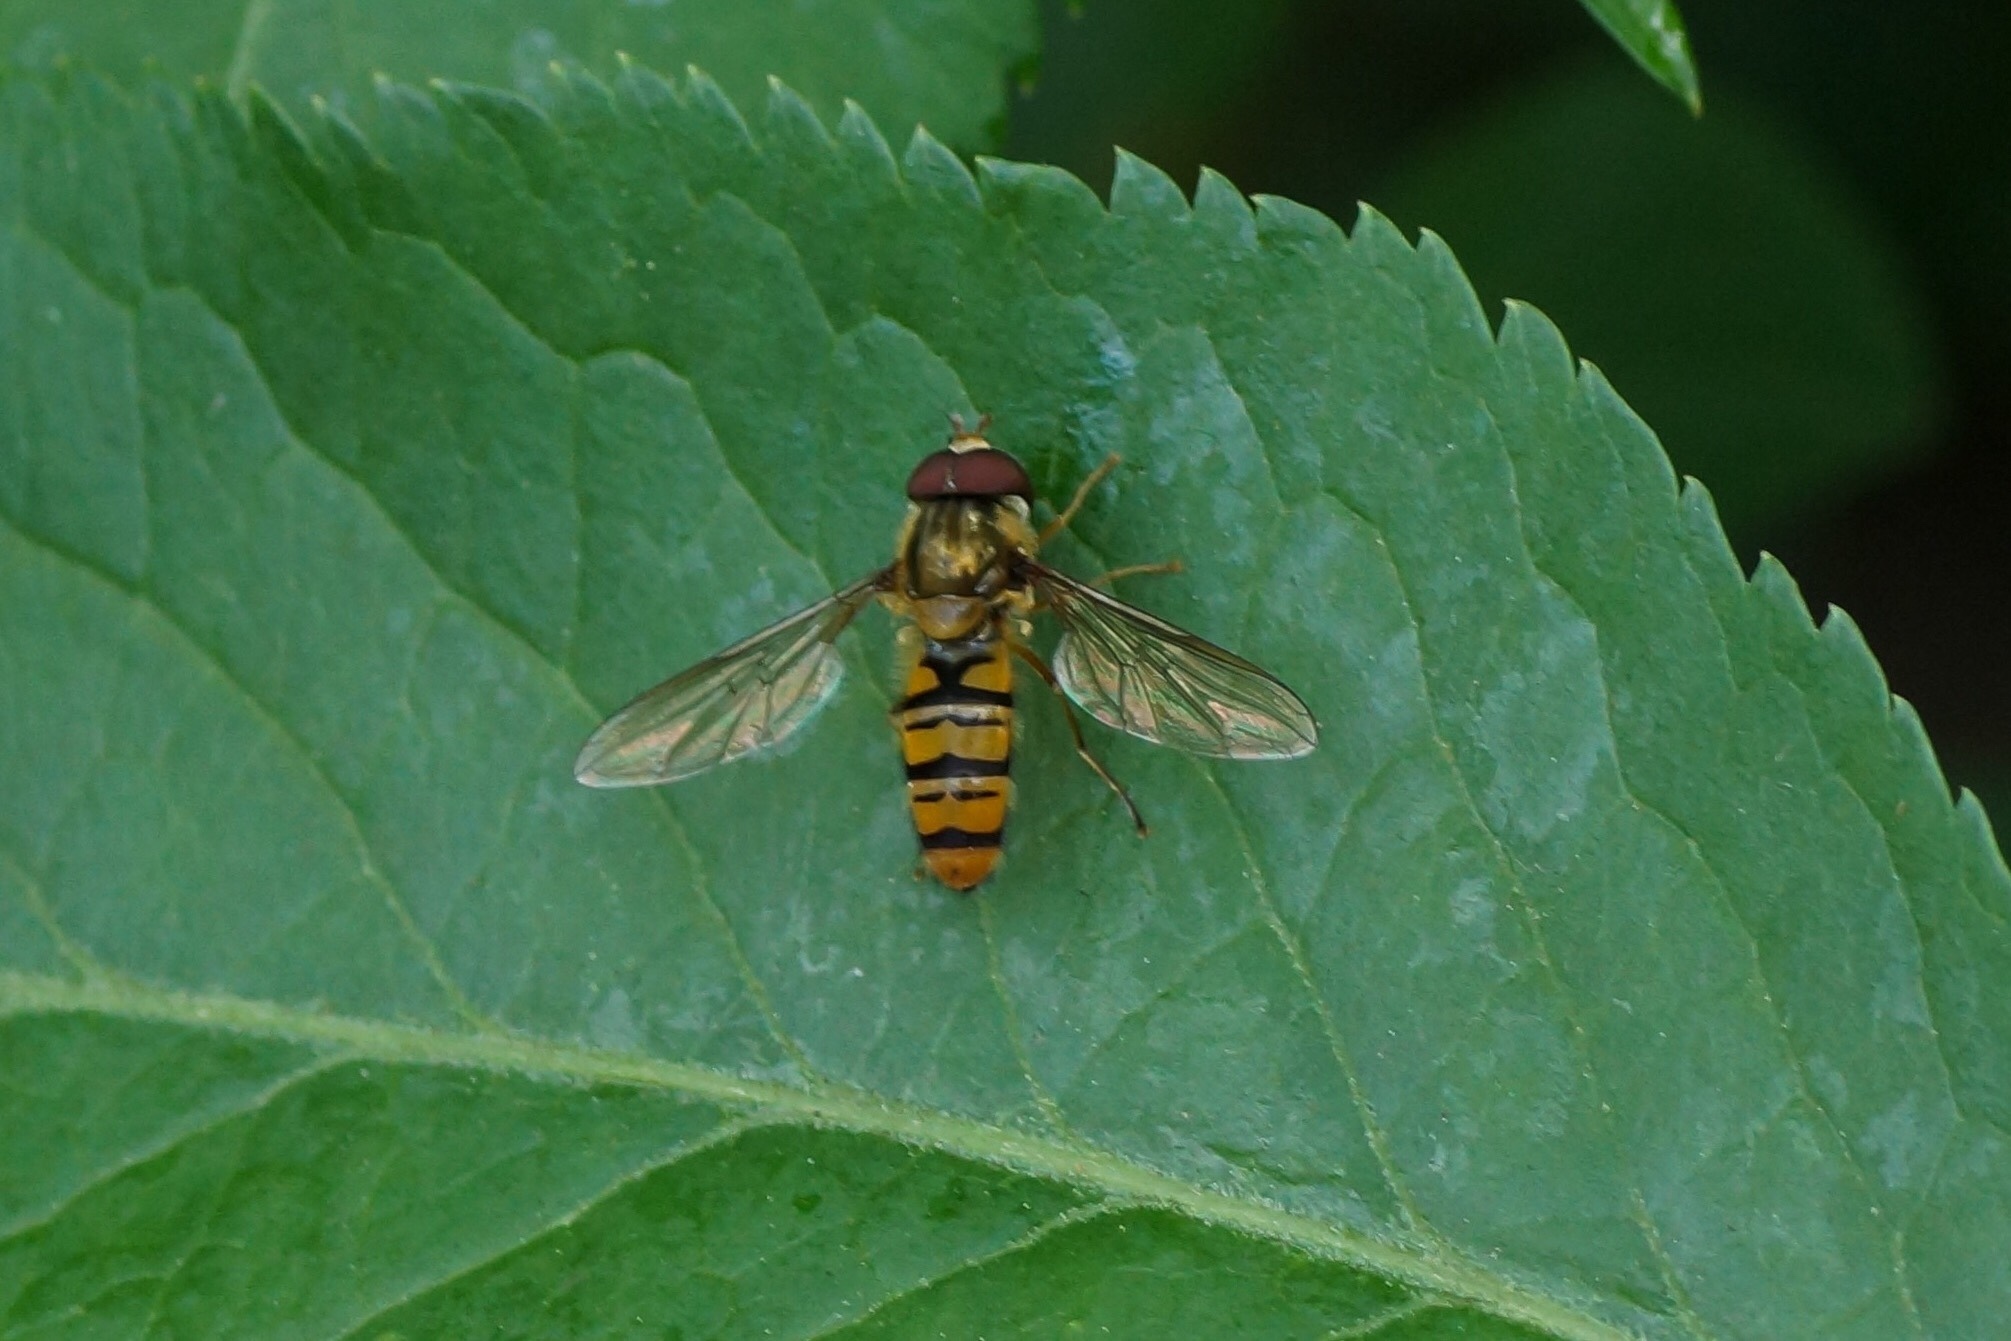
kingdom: Animalia
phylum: Arthropoda
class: Insecta
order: Diptera
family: Syrphidae
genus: Episyrphus
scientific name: Episyrphus balteatus
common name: Marmalade hoverfly
